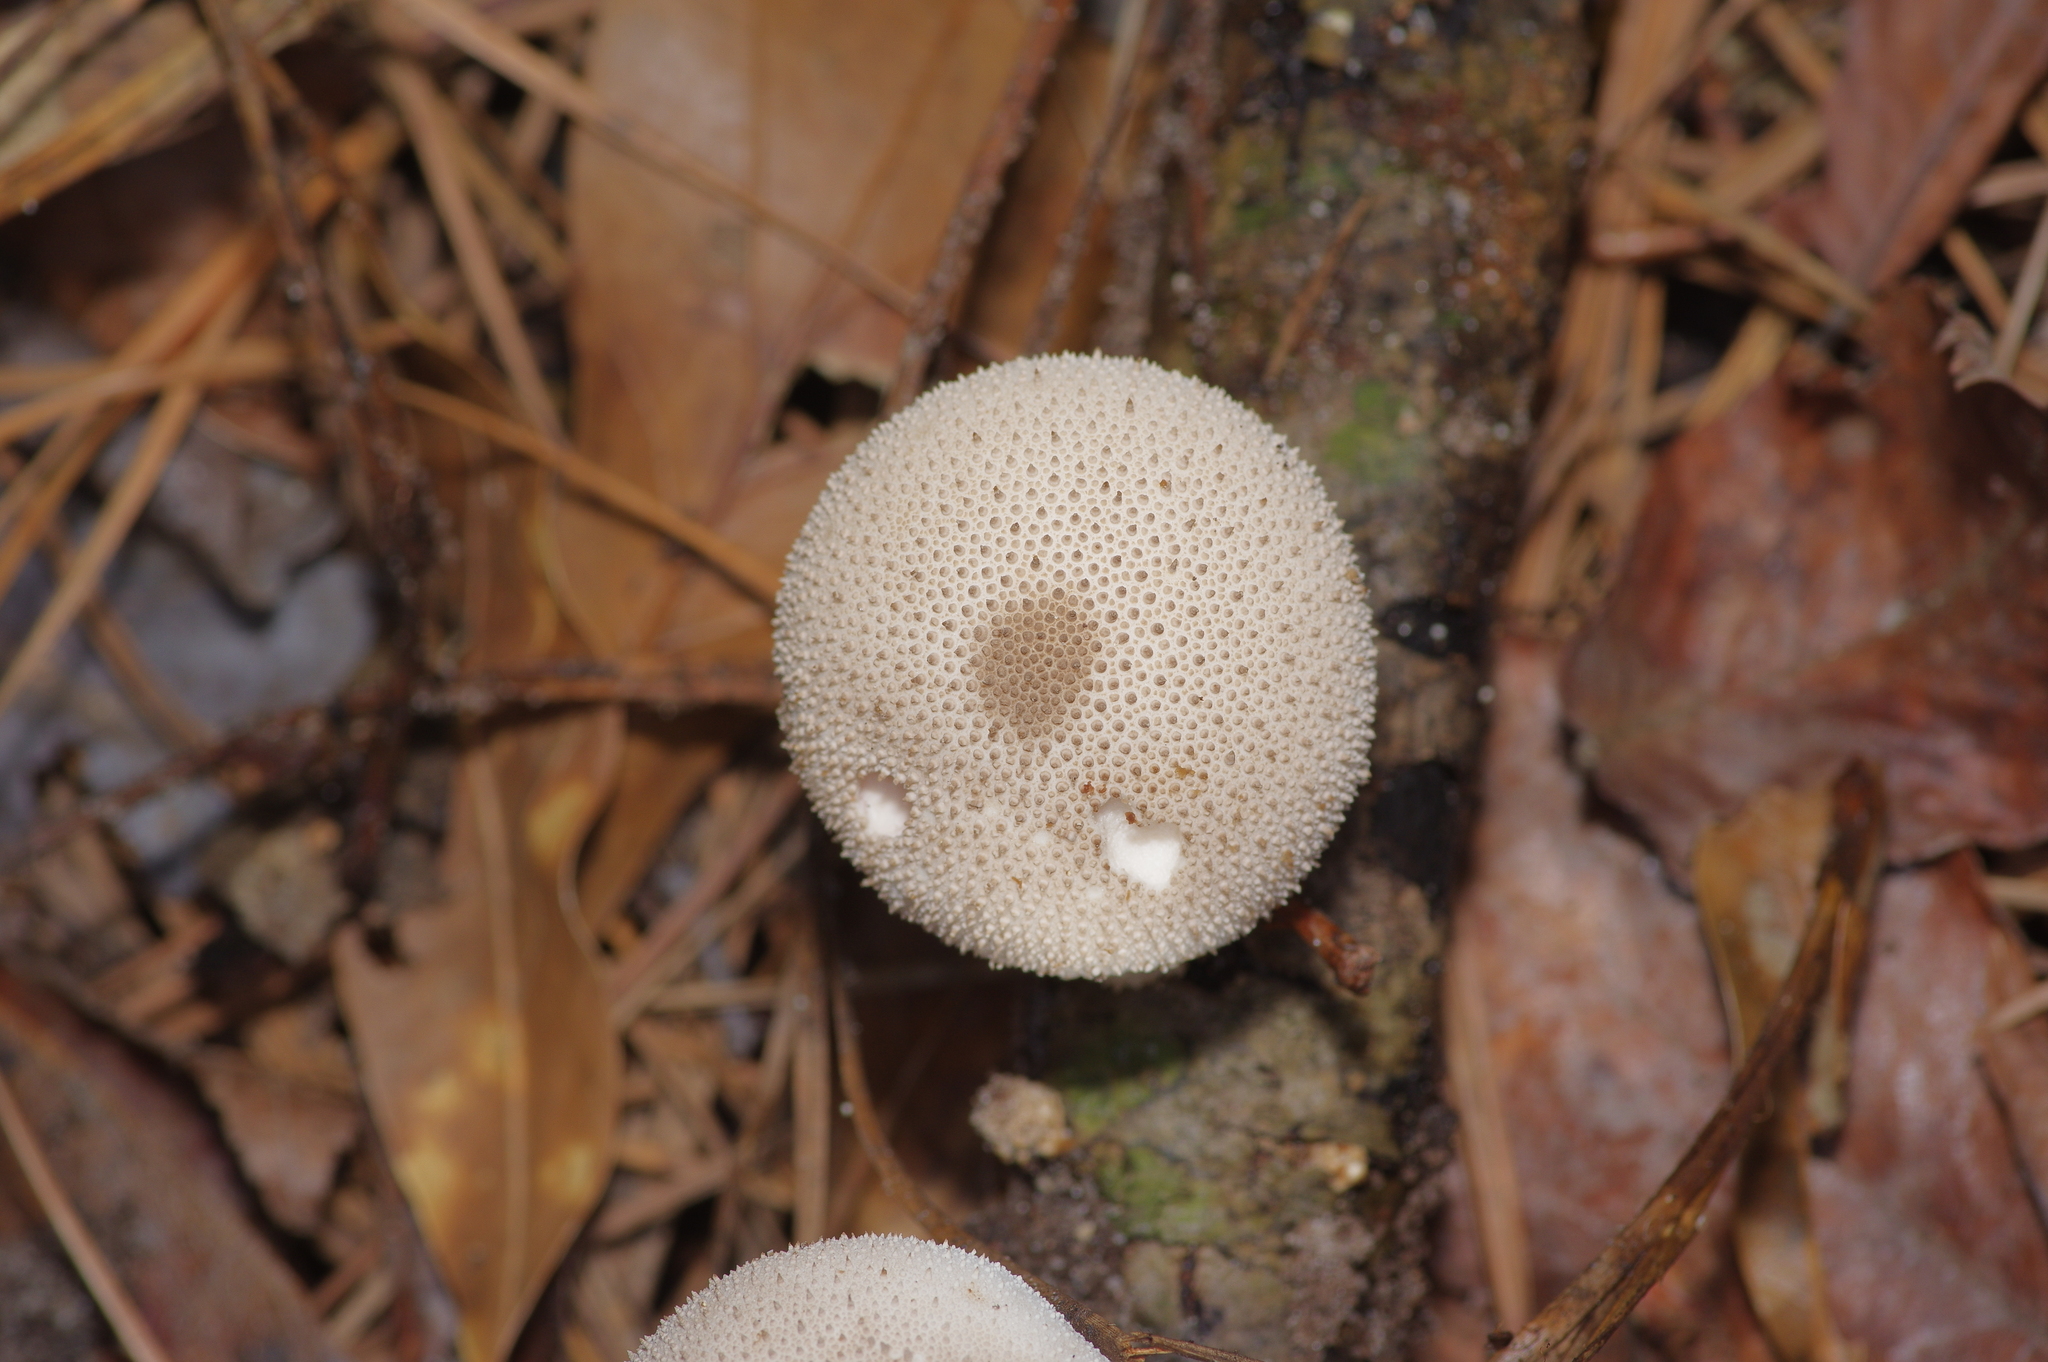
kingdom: Fungi
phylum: Basidiomycota
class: Agaricomycetes
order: Agaricales
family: Lycoperdaceae
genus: Lycoperdon
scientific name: Lycoperdon perlatum
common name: Common puffball
